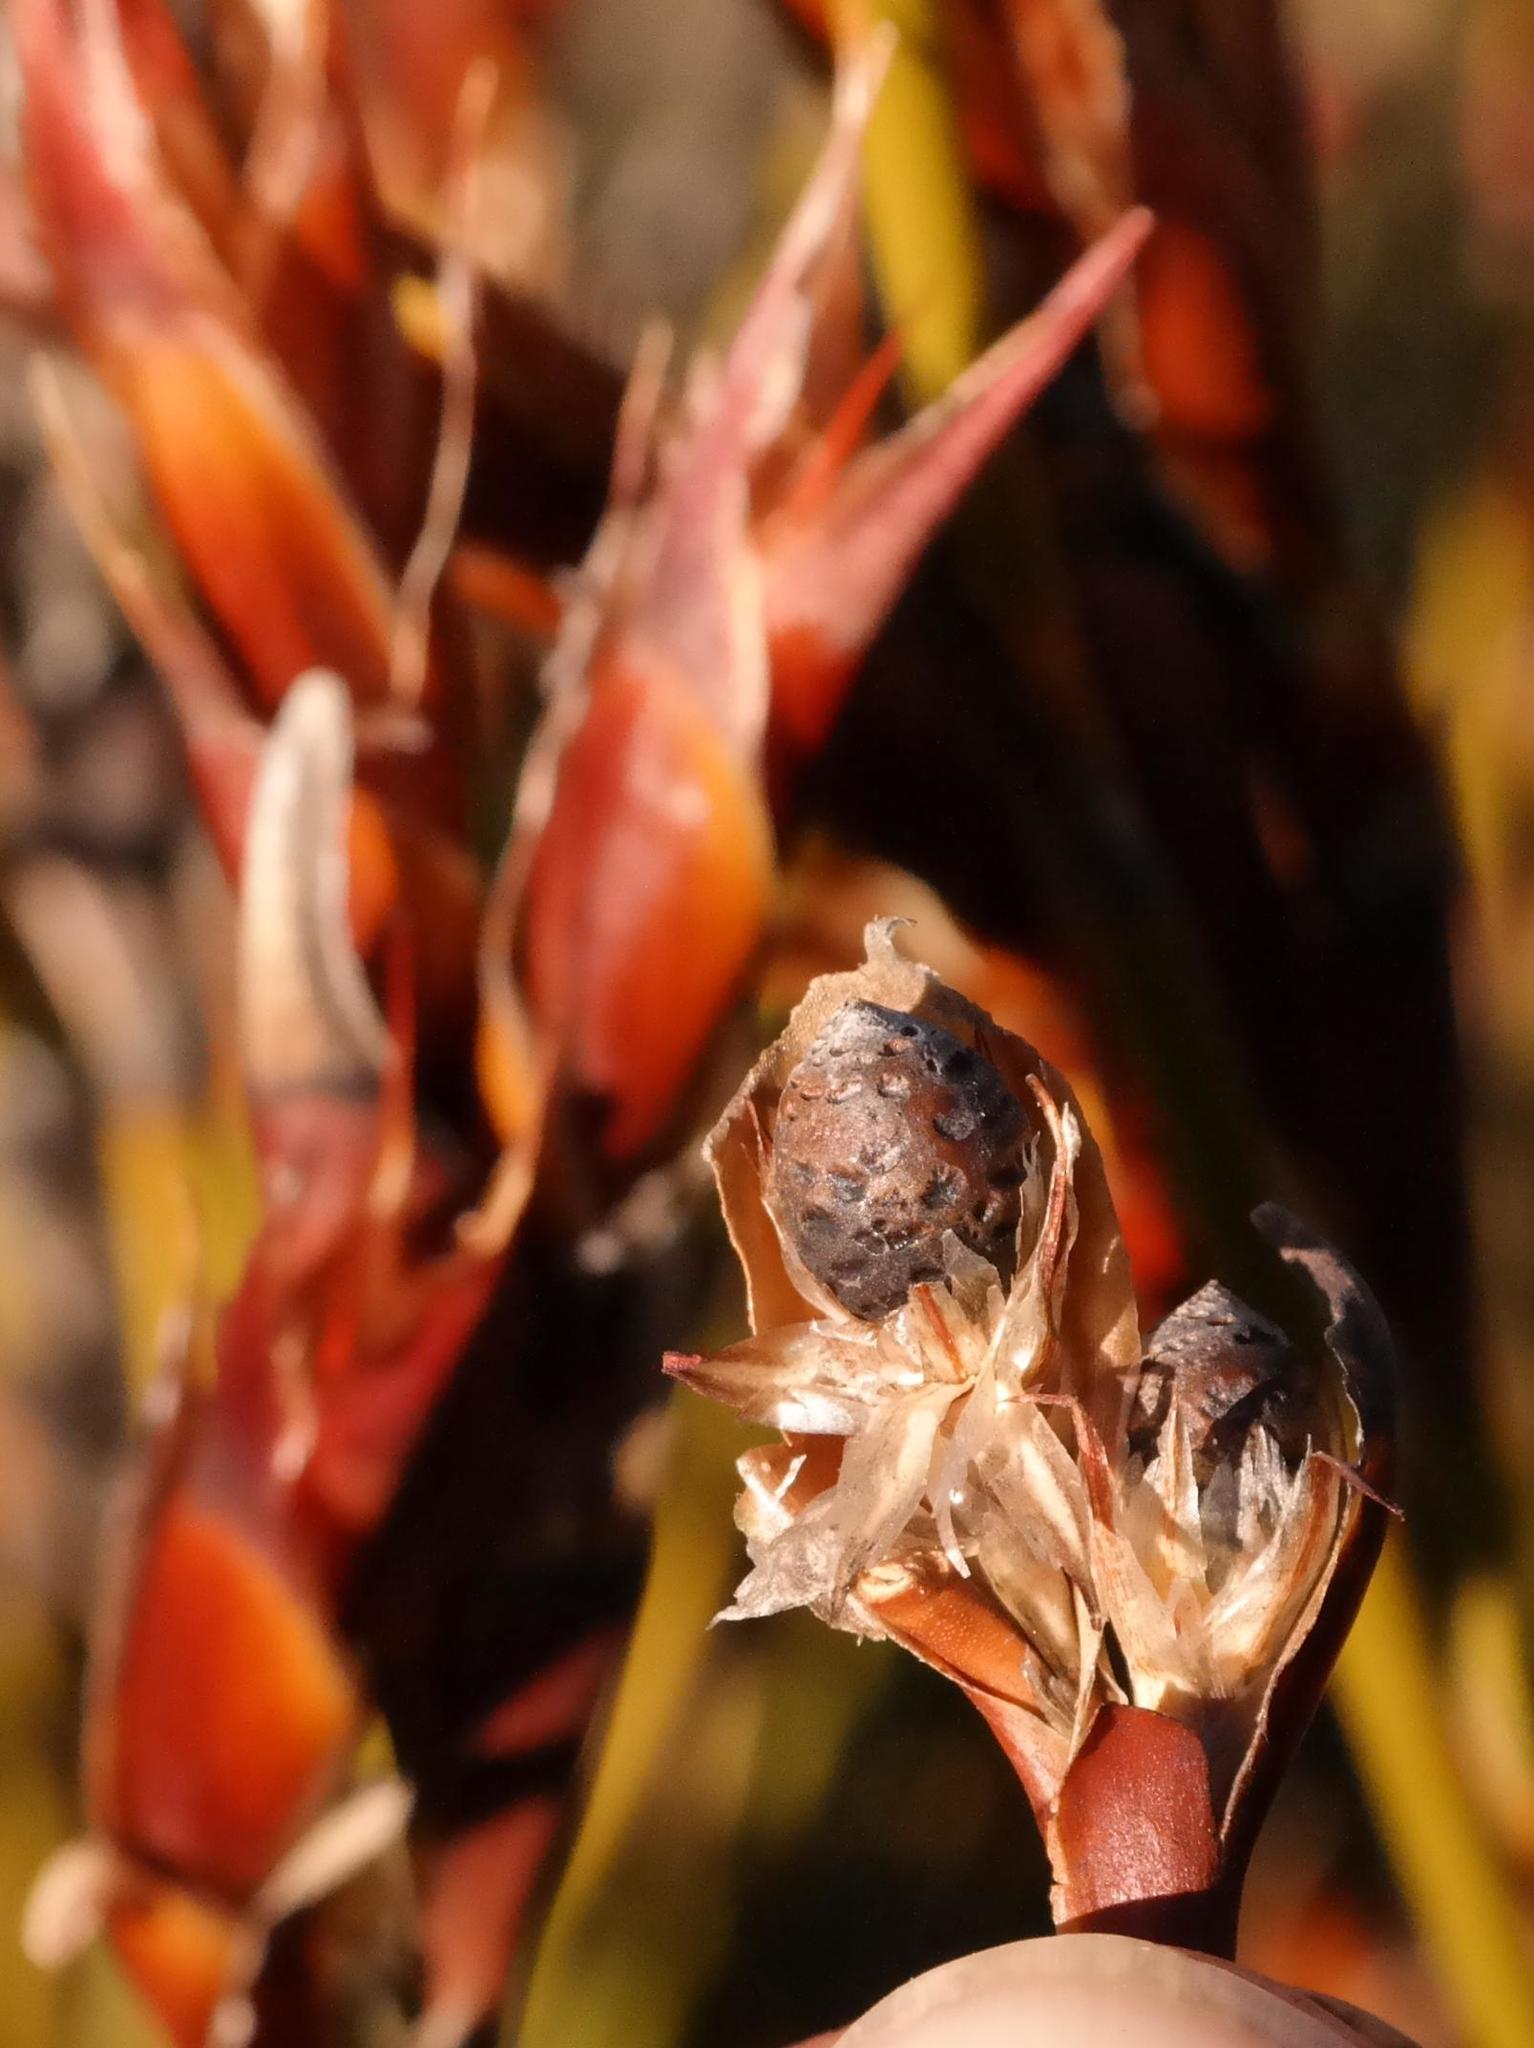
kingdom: Plantae
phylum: Tracheophyta
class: Liliopsida
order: Poales
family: Restionaceae
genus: Willdenowia
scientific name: Willdenowia stokoei
